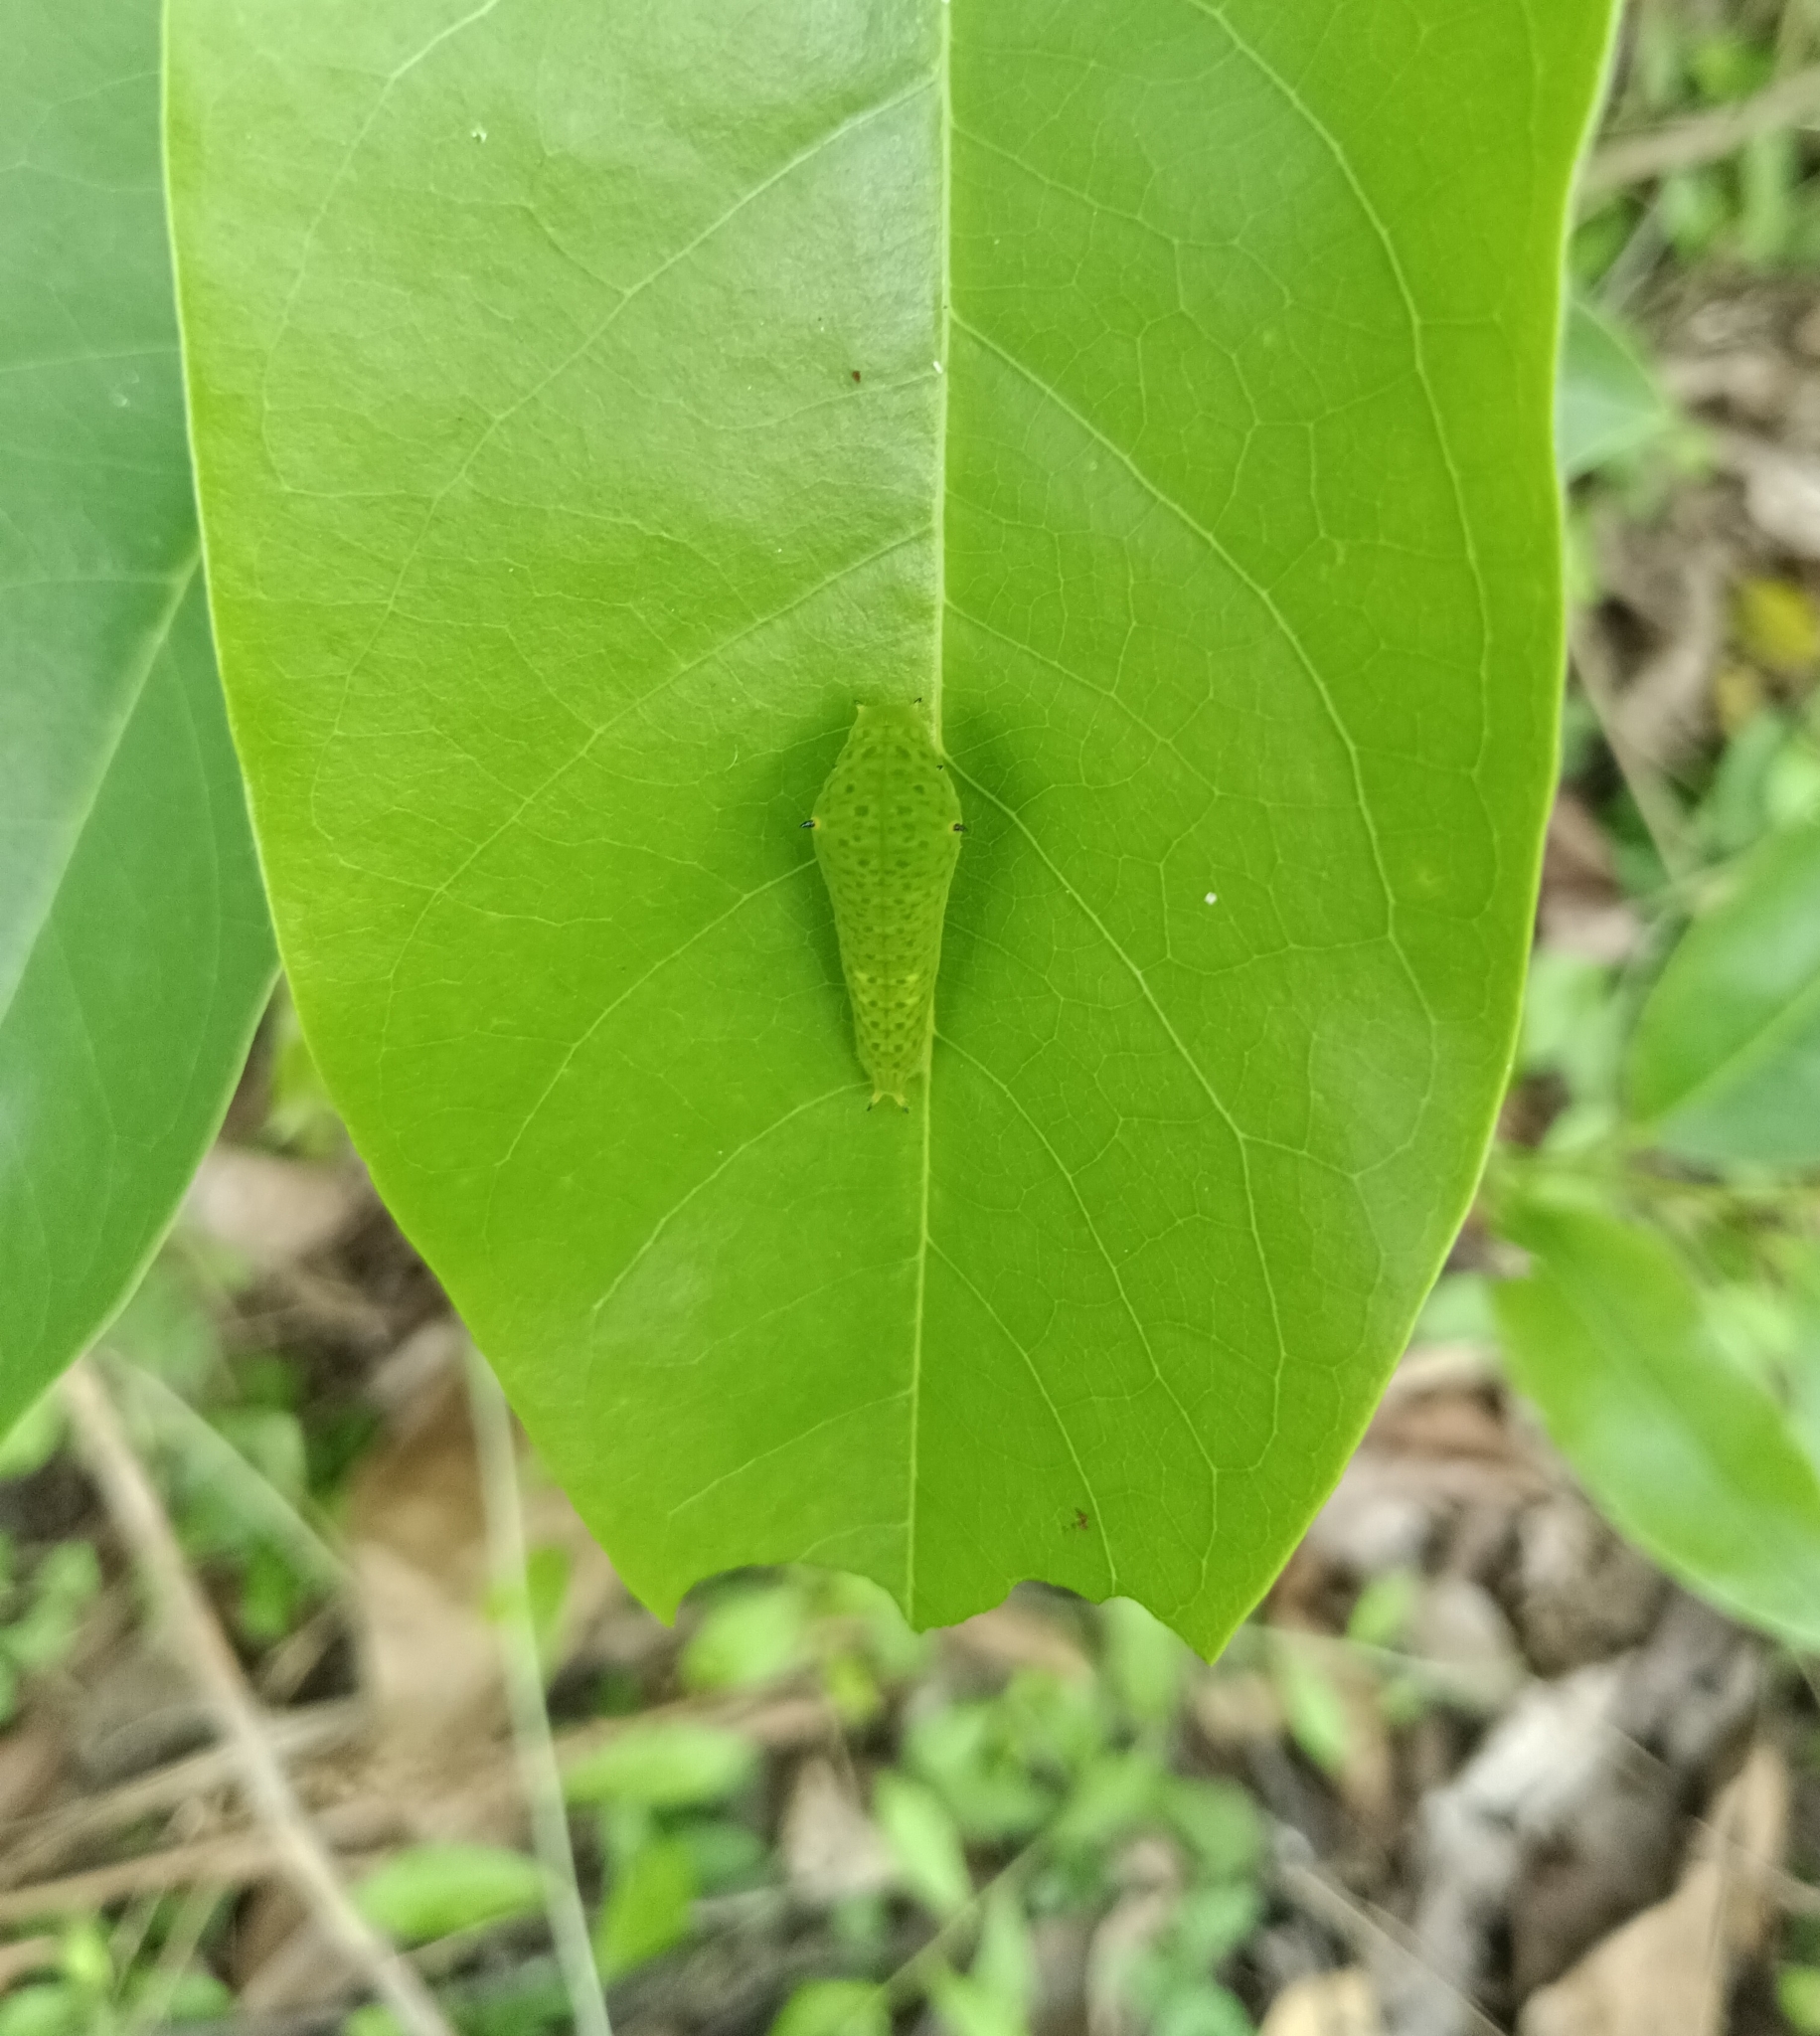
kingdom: Animalia
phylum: Arthropoda
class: Insecta
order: Lepidoptera
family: Papilionidae
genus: Graphium
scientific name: Graphium agamemnon
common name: Tailed jay
